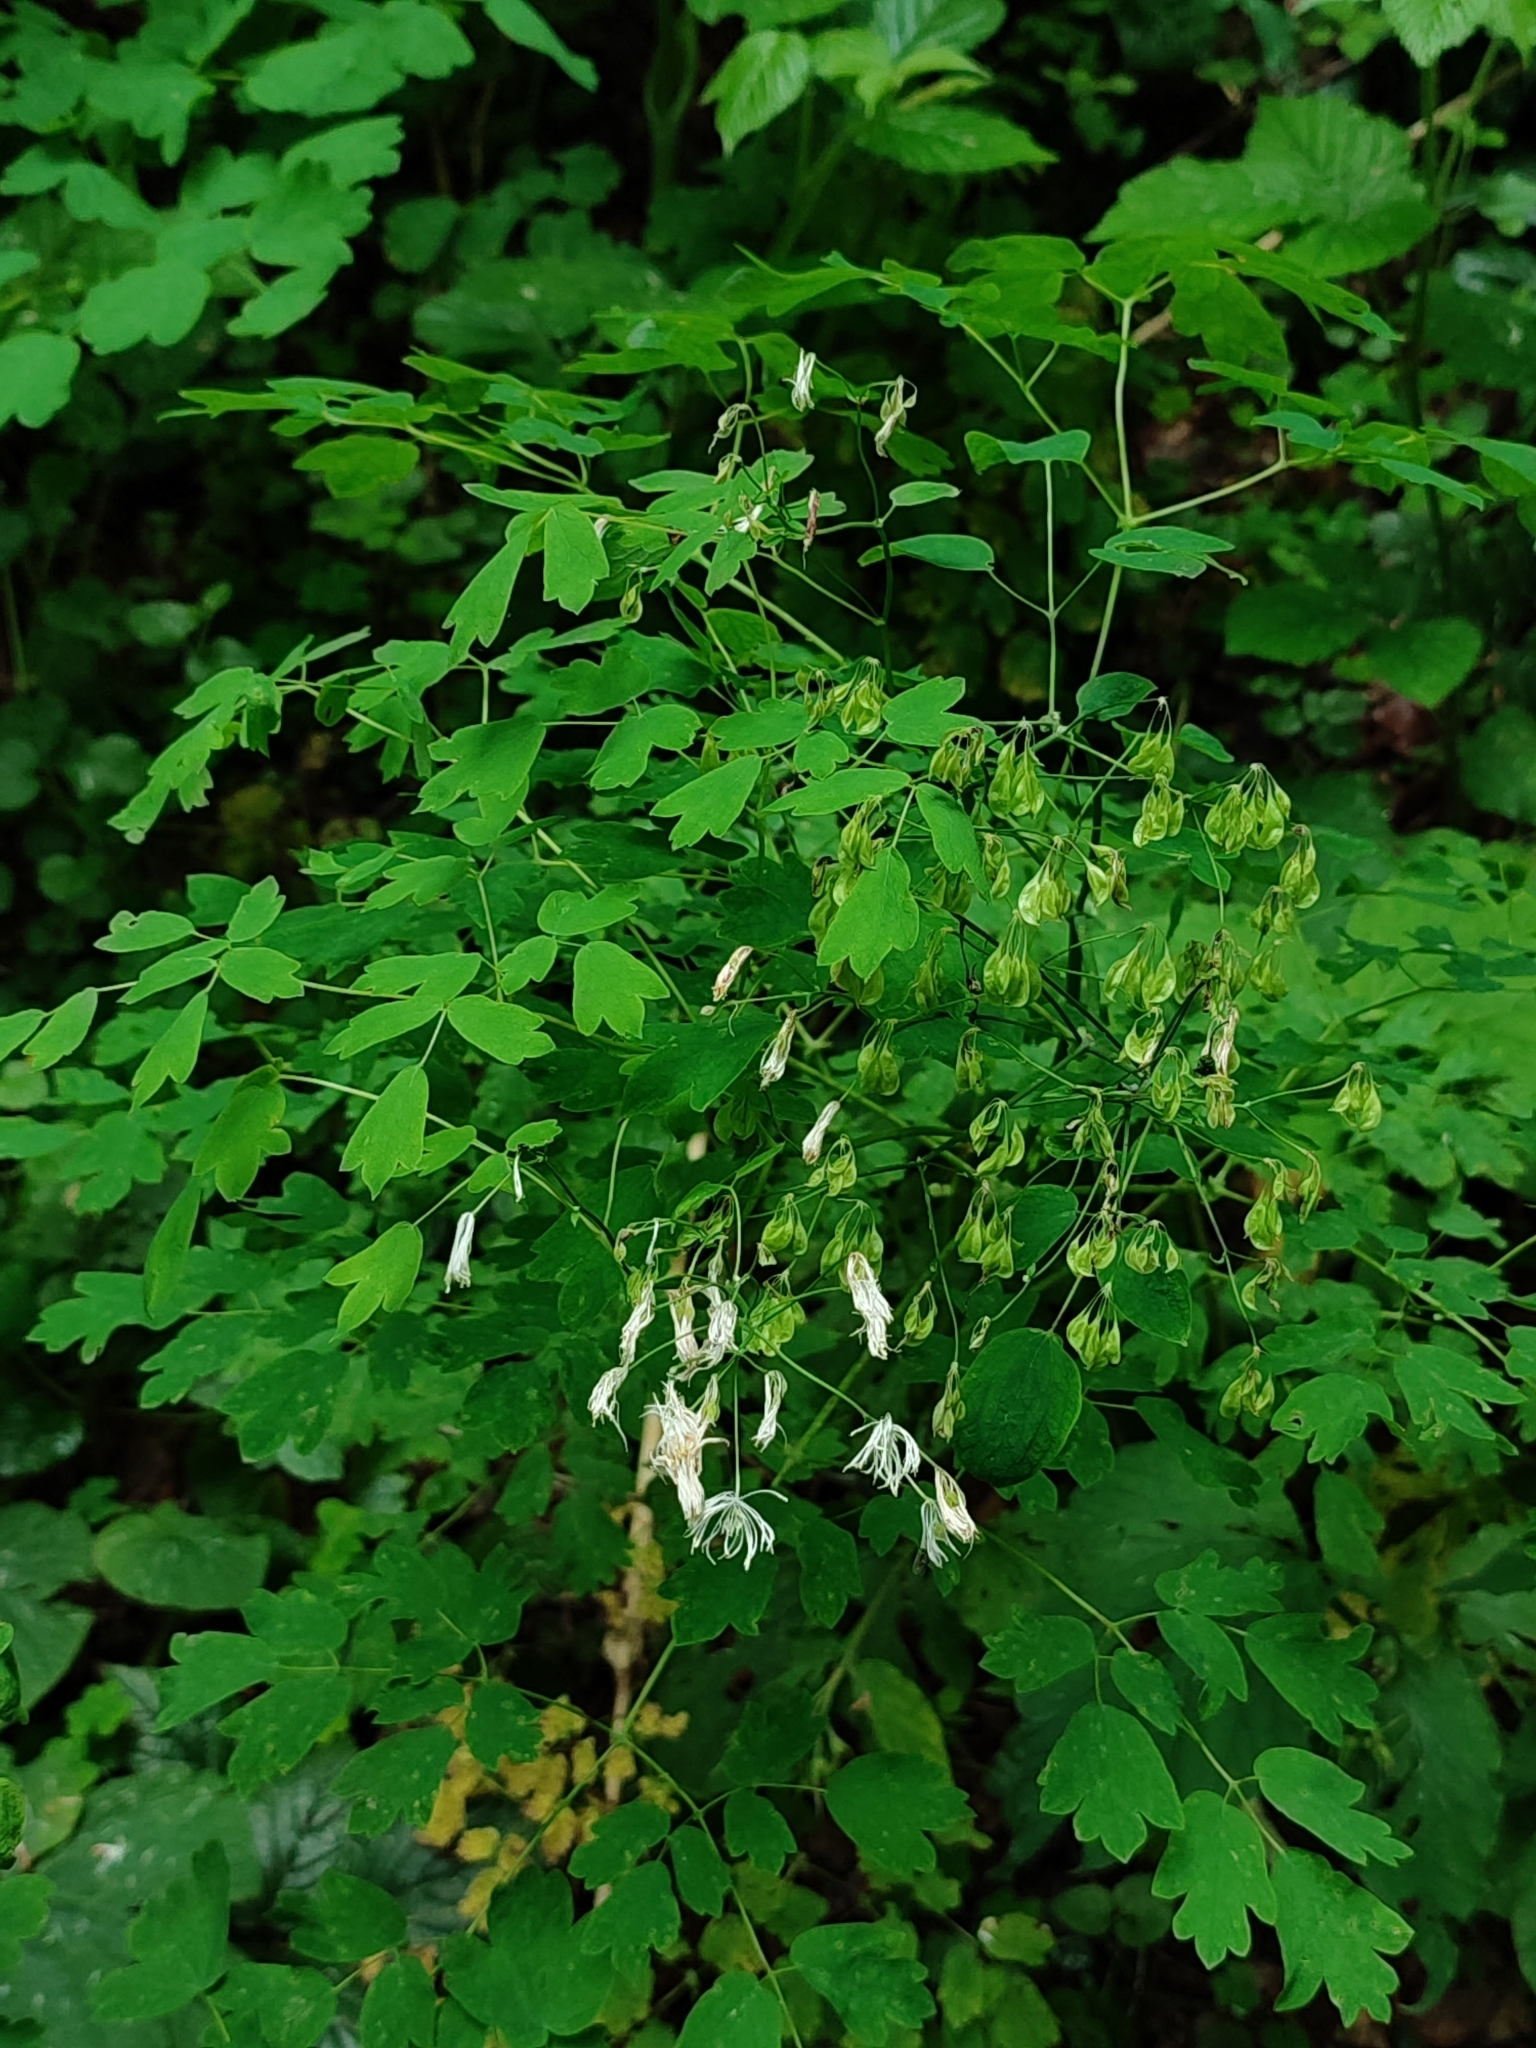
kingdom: Plantae
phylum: Tracheophyta
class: Magnoliopsida
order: Ranunculales
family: Ranunculaceae
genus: Thalictrum
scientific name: Thalictrum aquilegiifolium
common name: French meadow-rue
